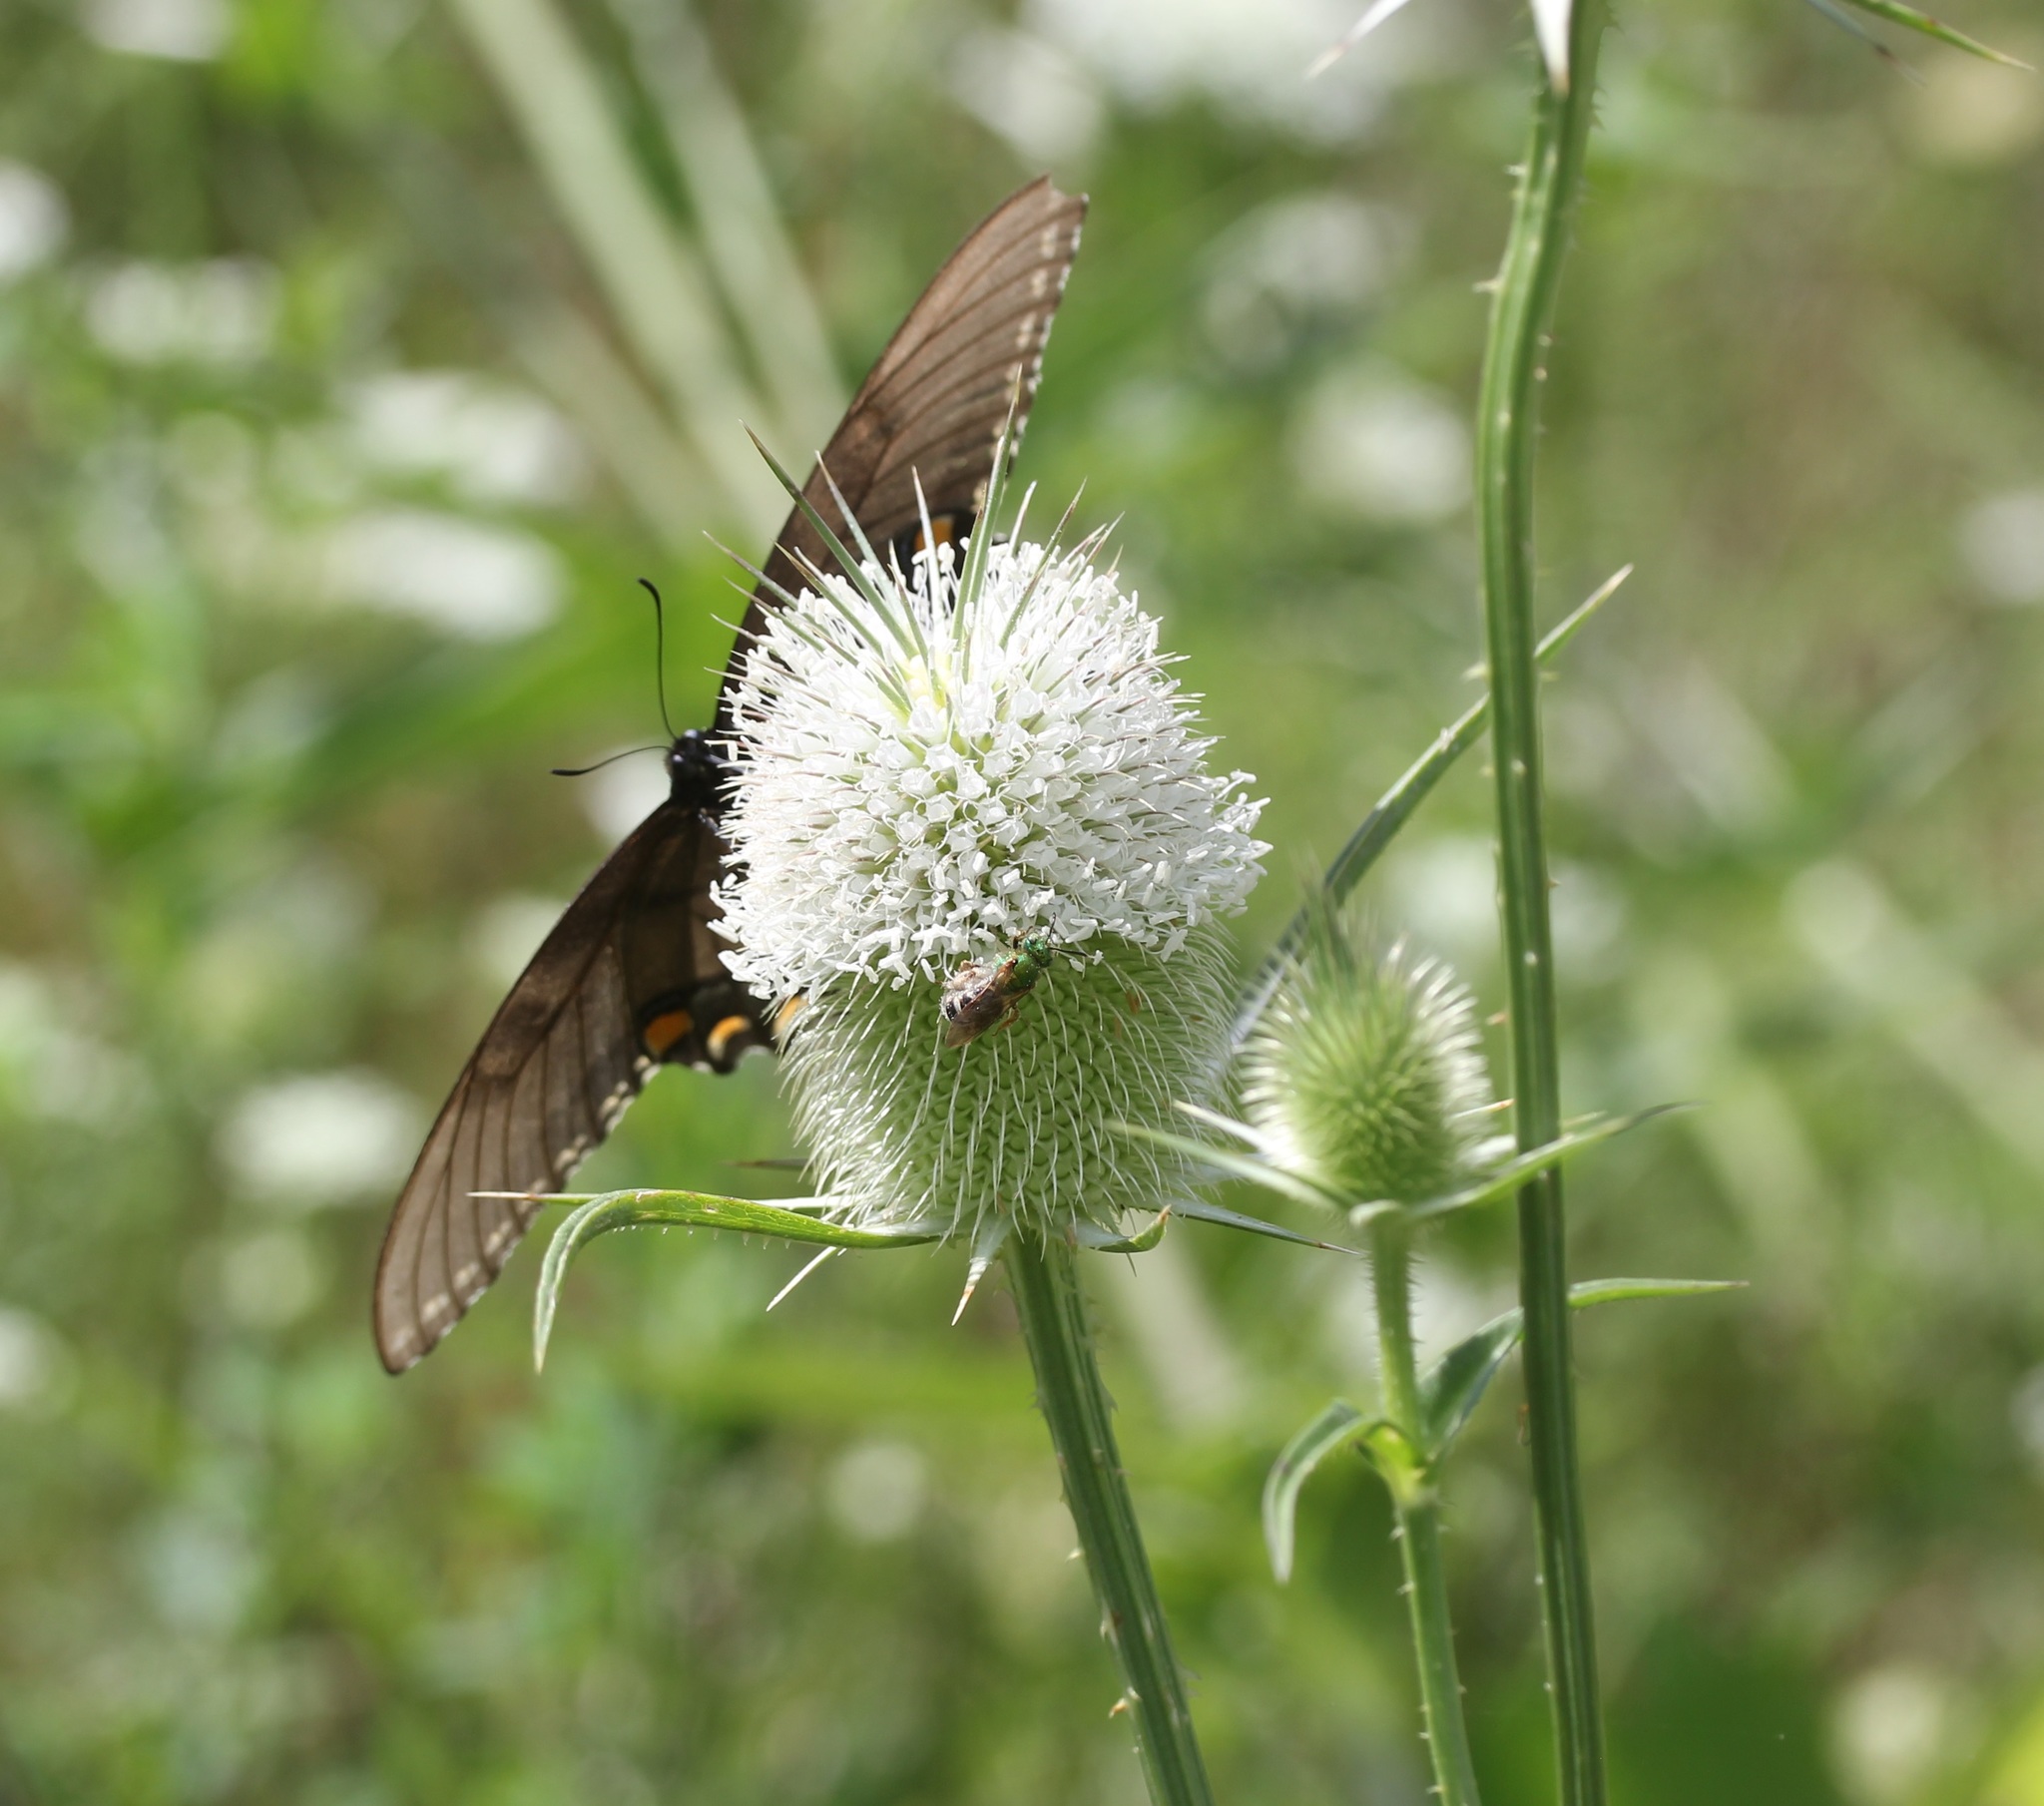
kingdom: Animalia
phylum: Arthropoda
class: Insecta
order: Hymenoptera
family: Halictidae
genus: Agapostemon
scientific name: Agapostemon virescens
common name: Bicolored striped sweat bee
